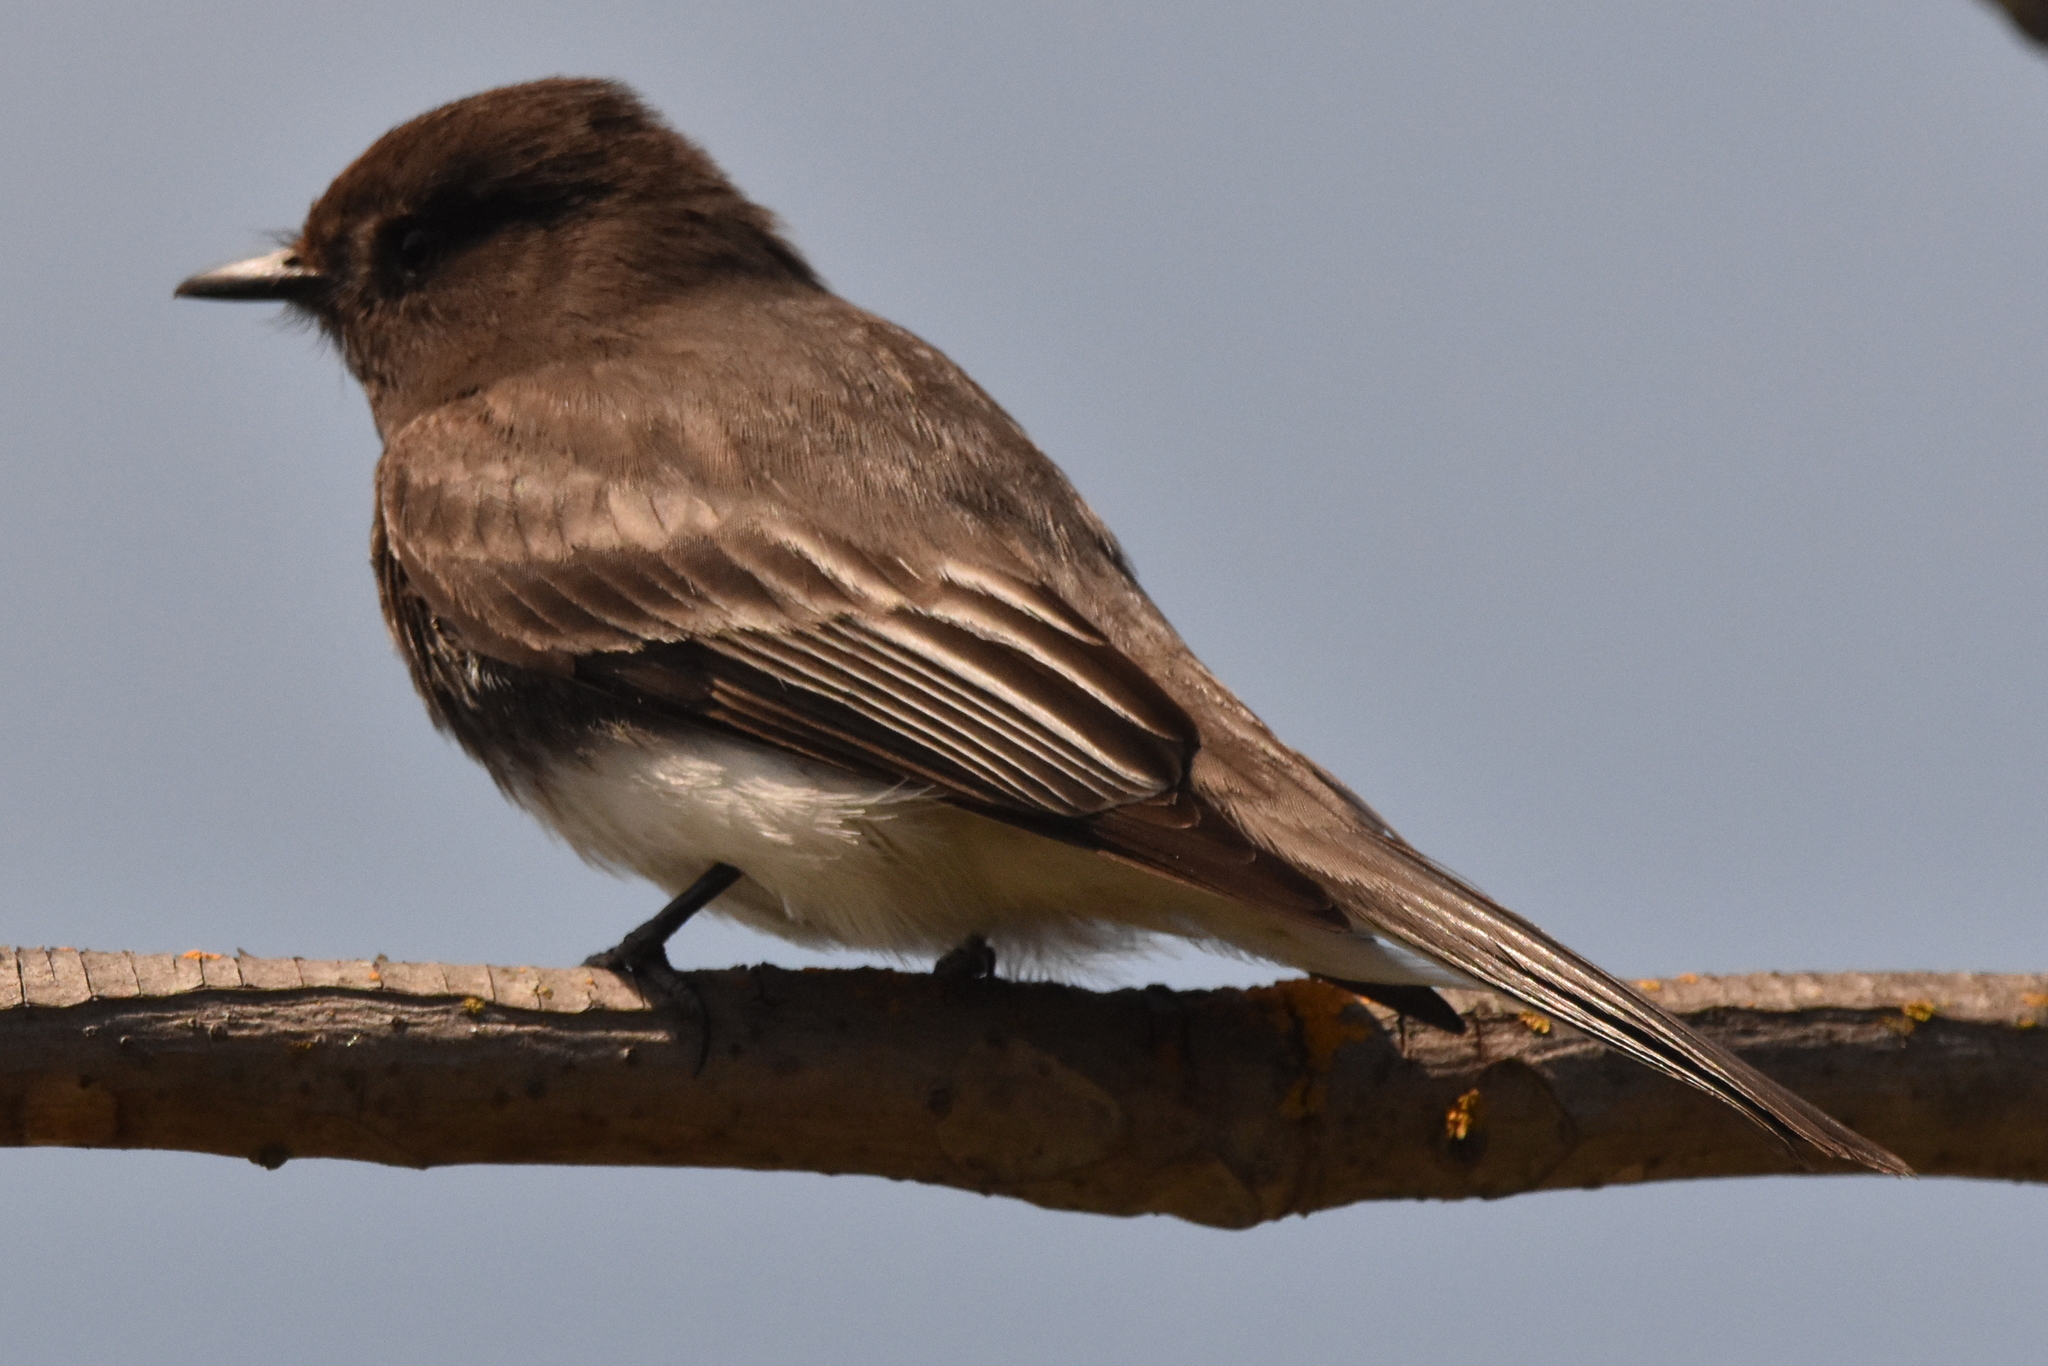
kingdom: Animalia
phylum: Chordata
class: Aves
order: Passeriformes
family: Tyrannidae
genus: Sayornis
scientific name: Sayornis nigricans
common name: Black phoebe
